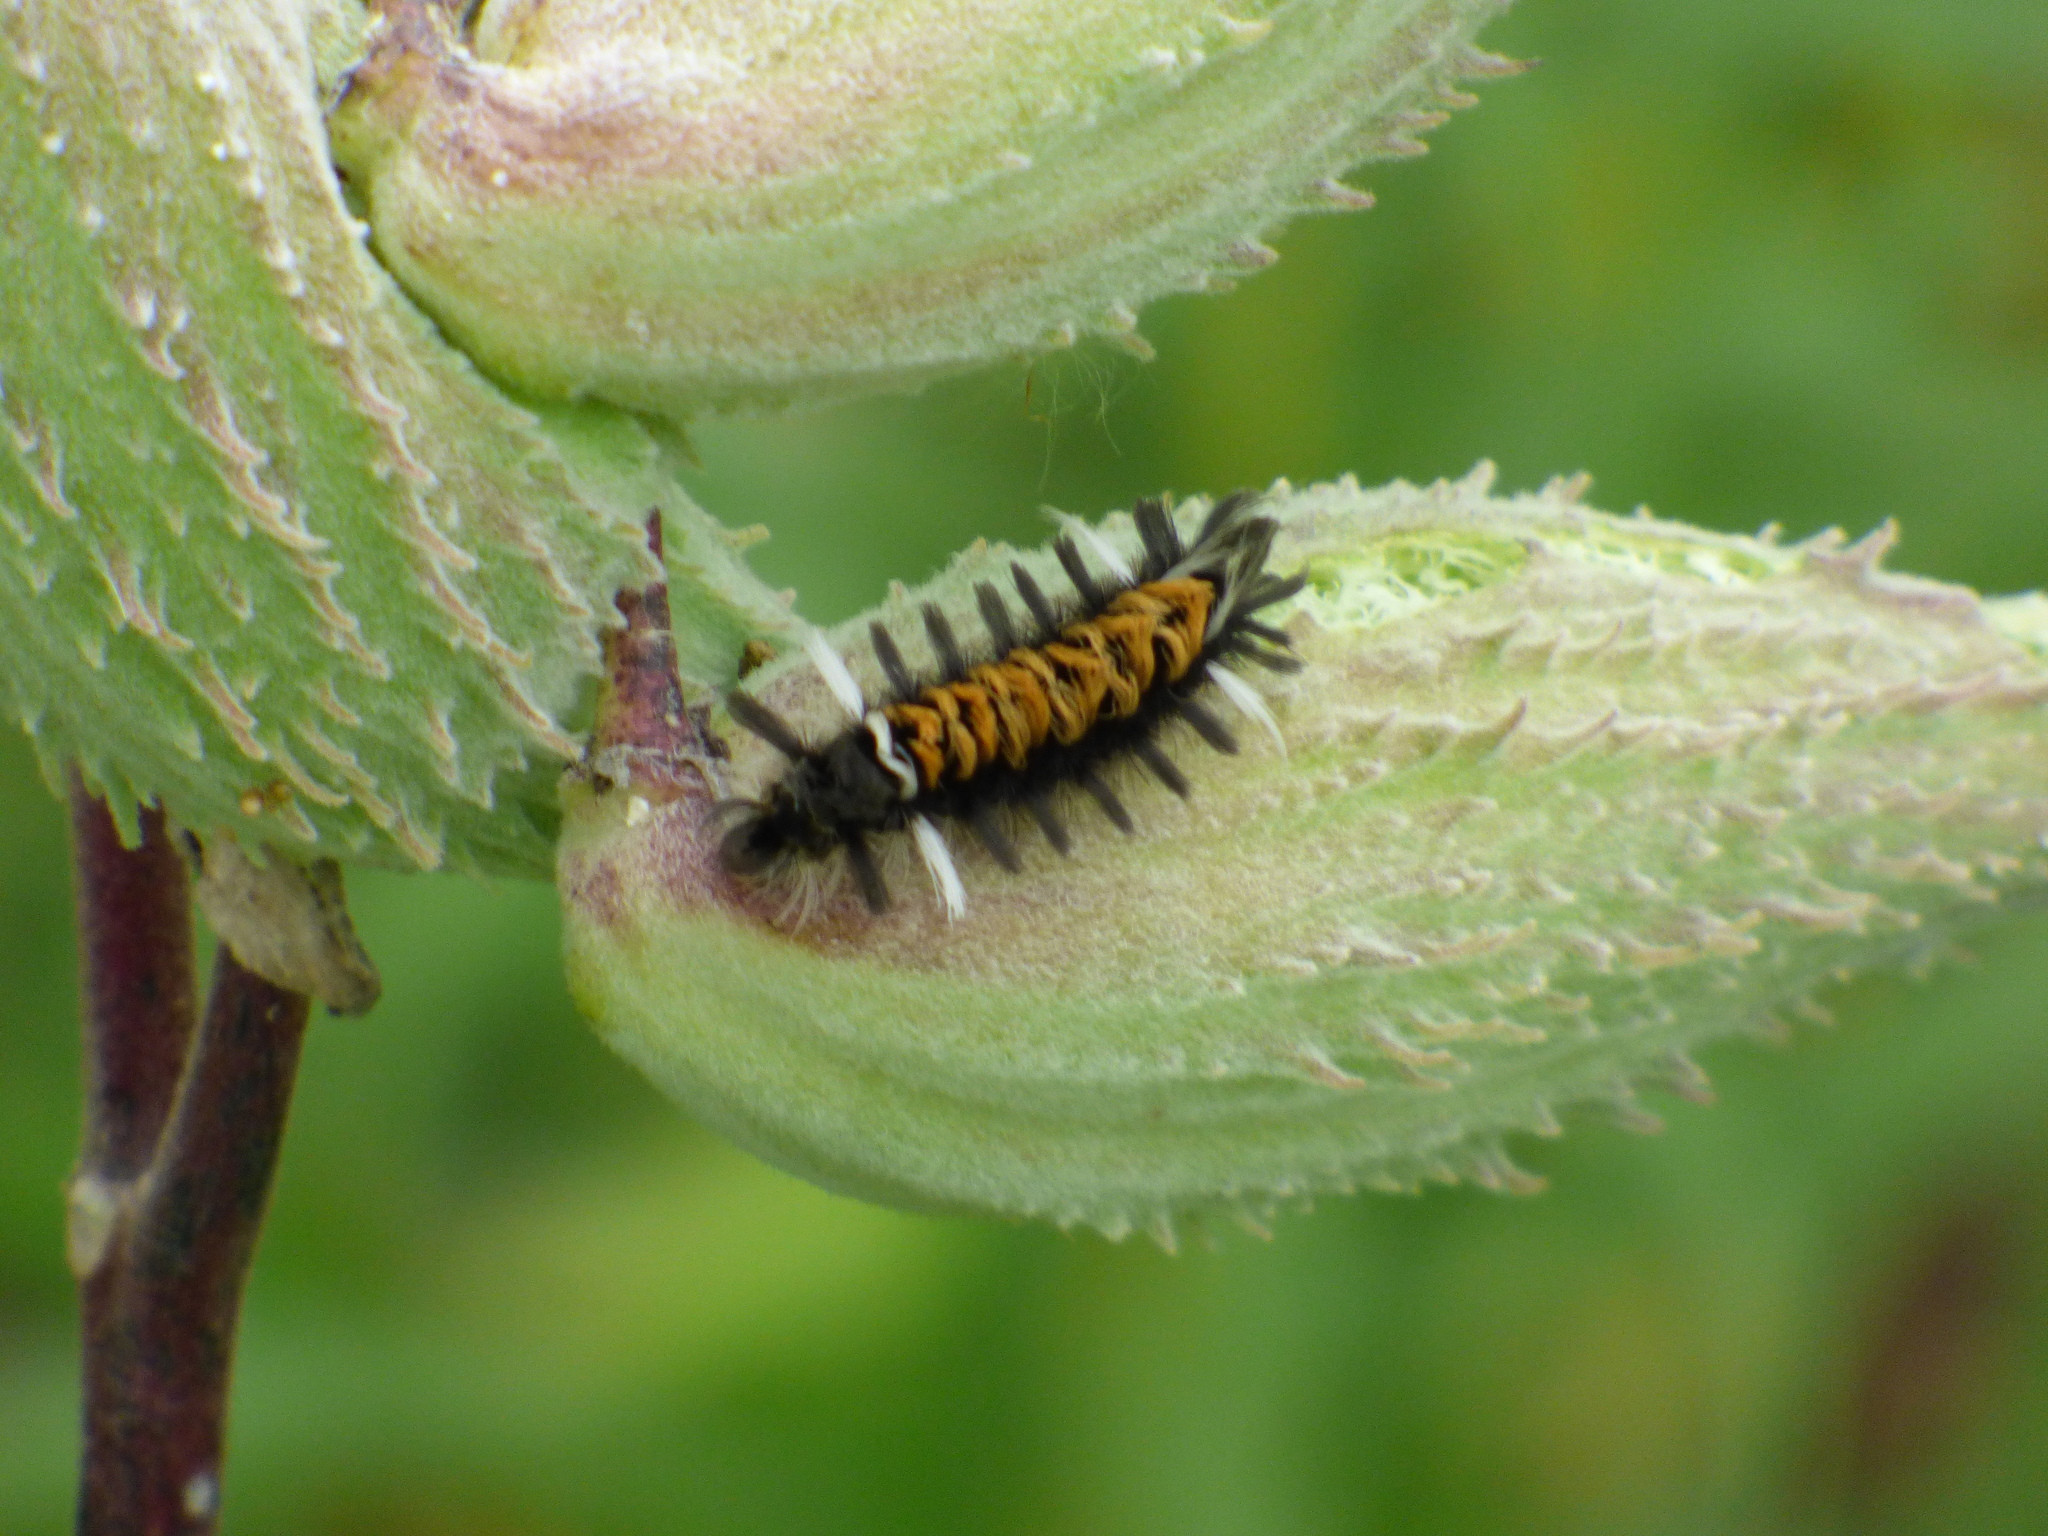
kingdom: Animalia
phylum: Arthropoda
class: Insecta
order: Lepidoptera
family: Erebidae
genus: Euchaetes
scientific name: Euchaetes egle
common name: Milkweed tussock moth
